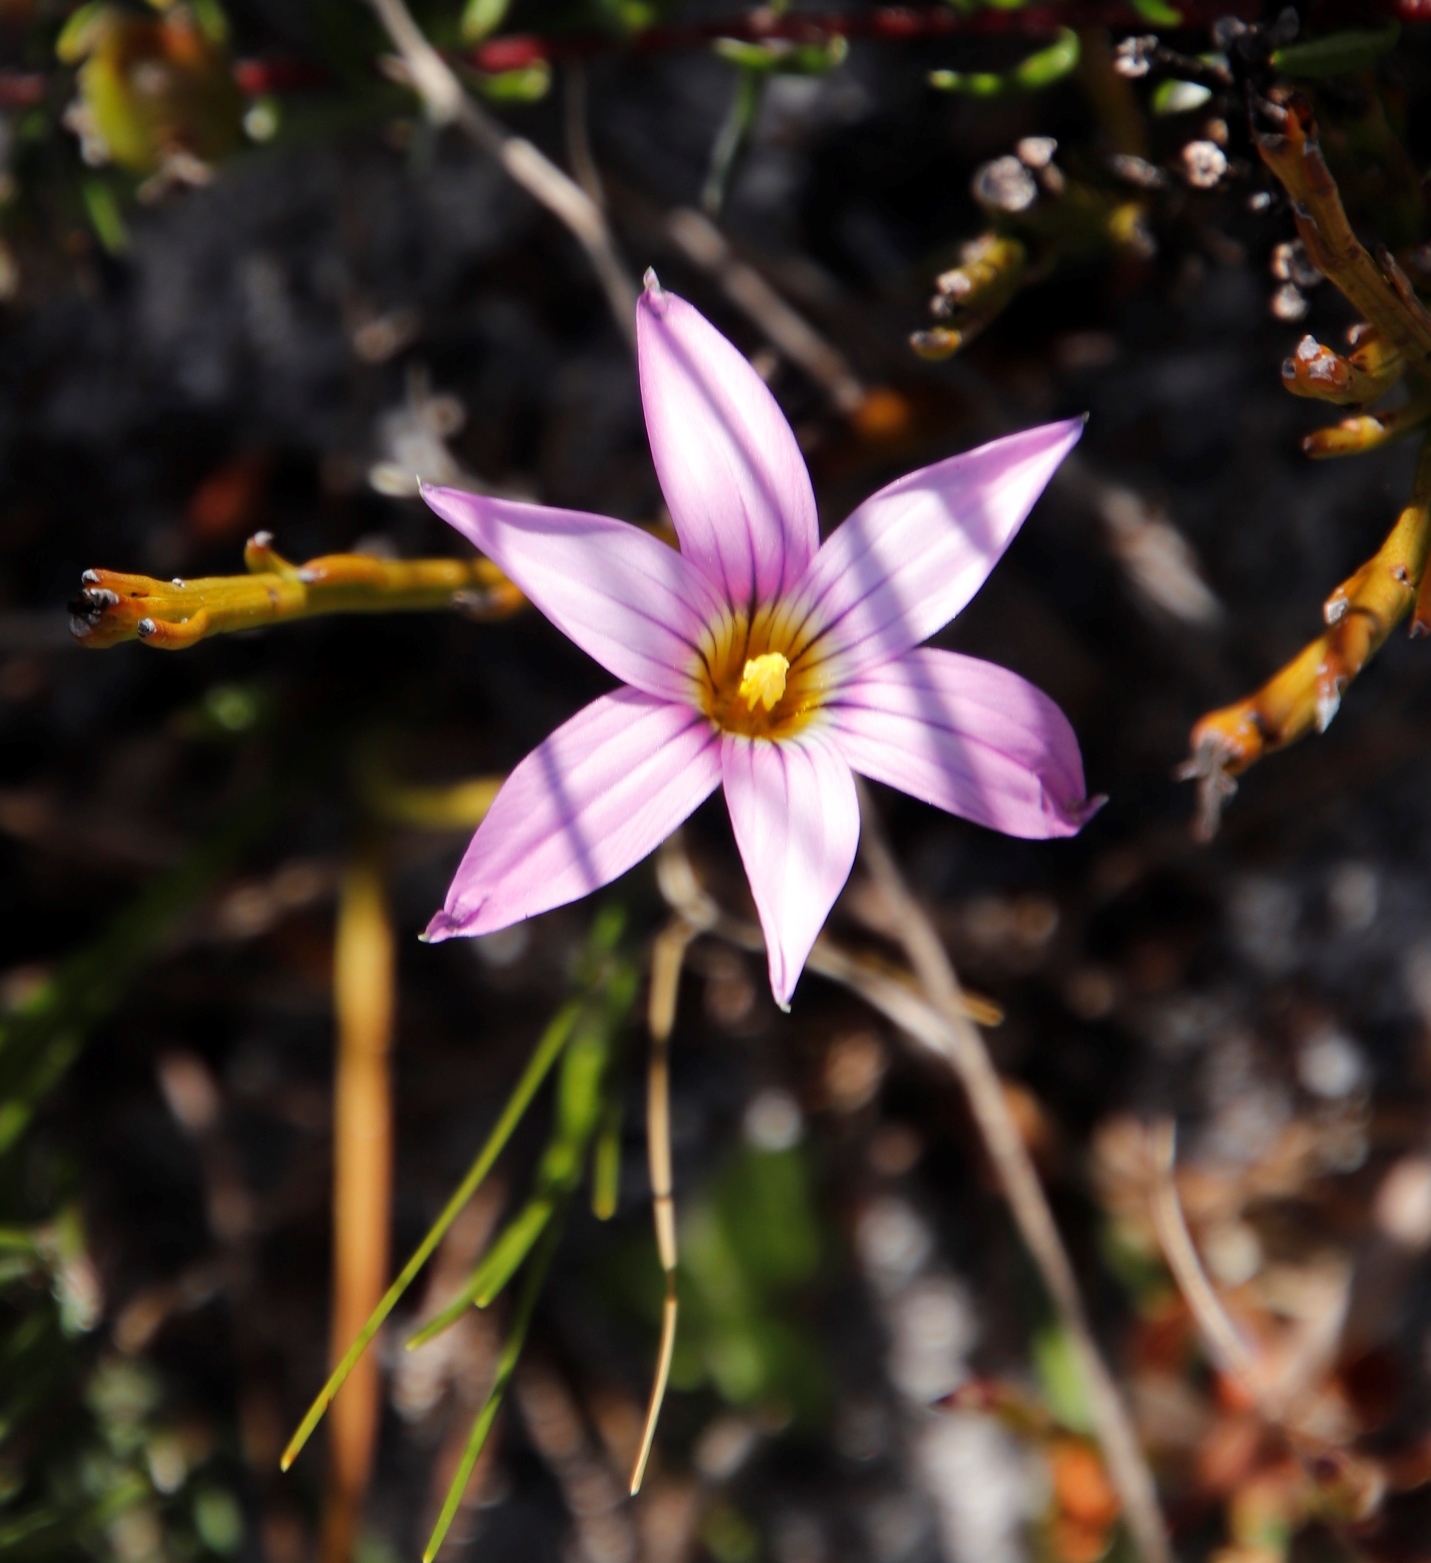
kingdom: Plantae
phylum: Tracheophyta
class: Liliopsida
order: Asparagales
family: Iridaceae
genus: Romulea
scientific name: Romulea rosea
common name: Oniongrass
